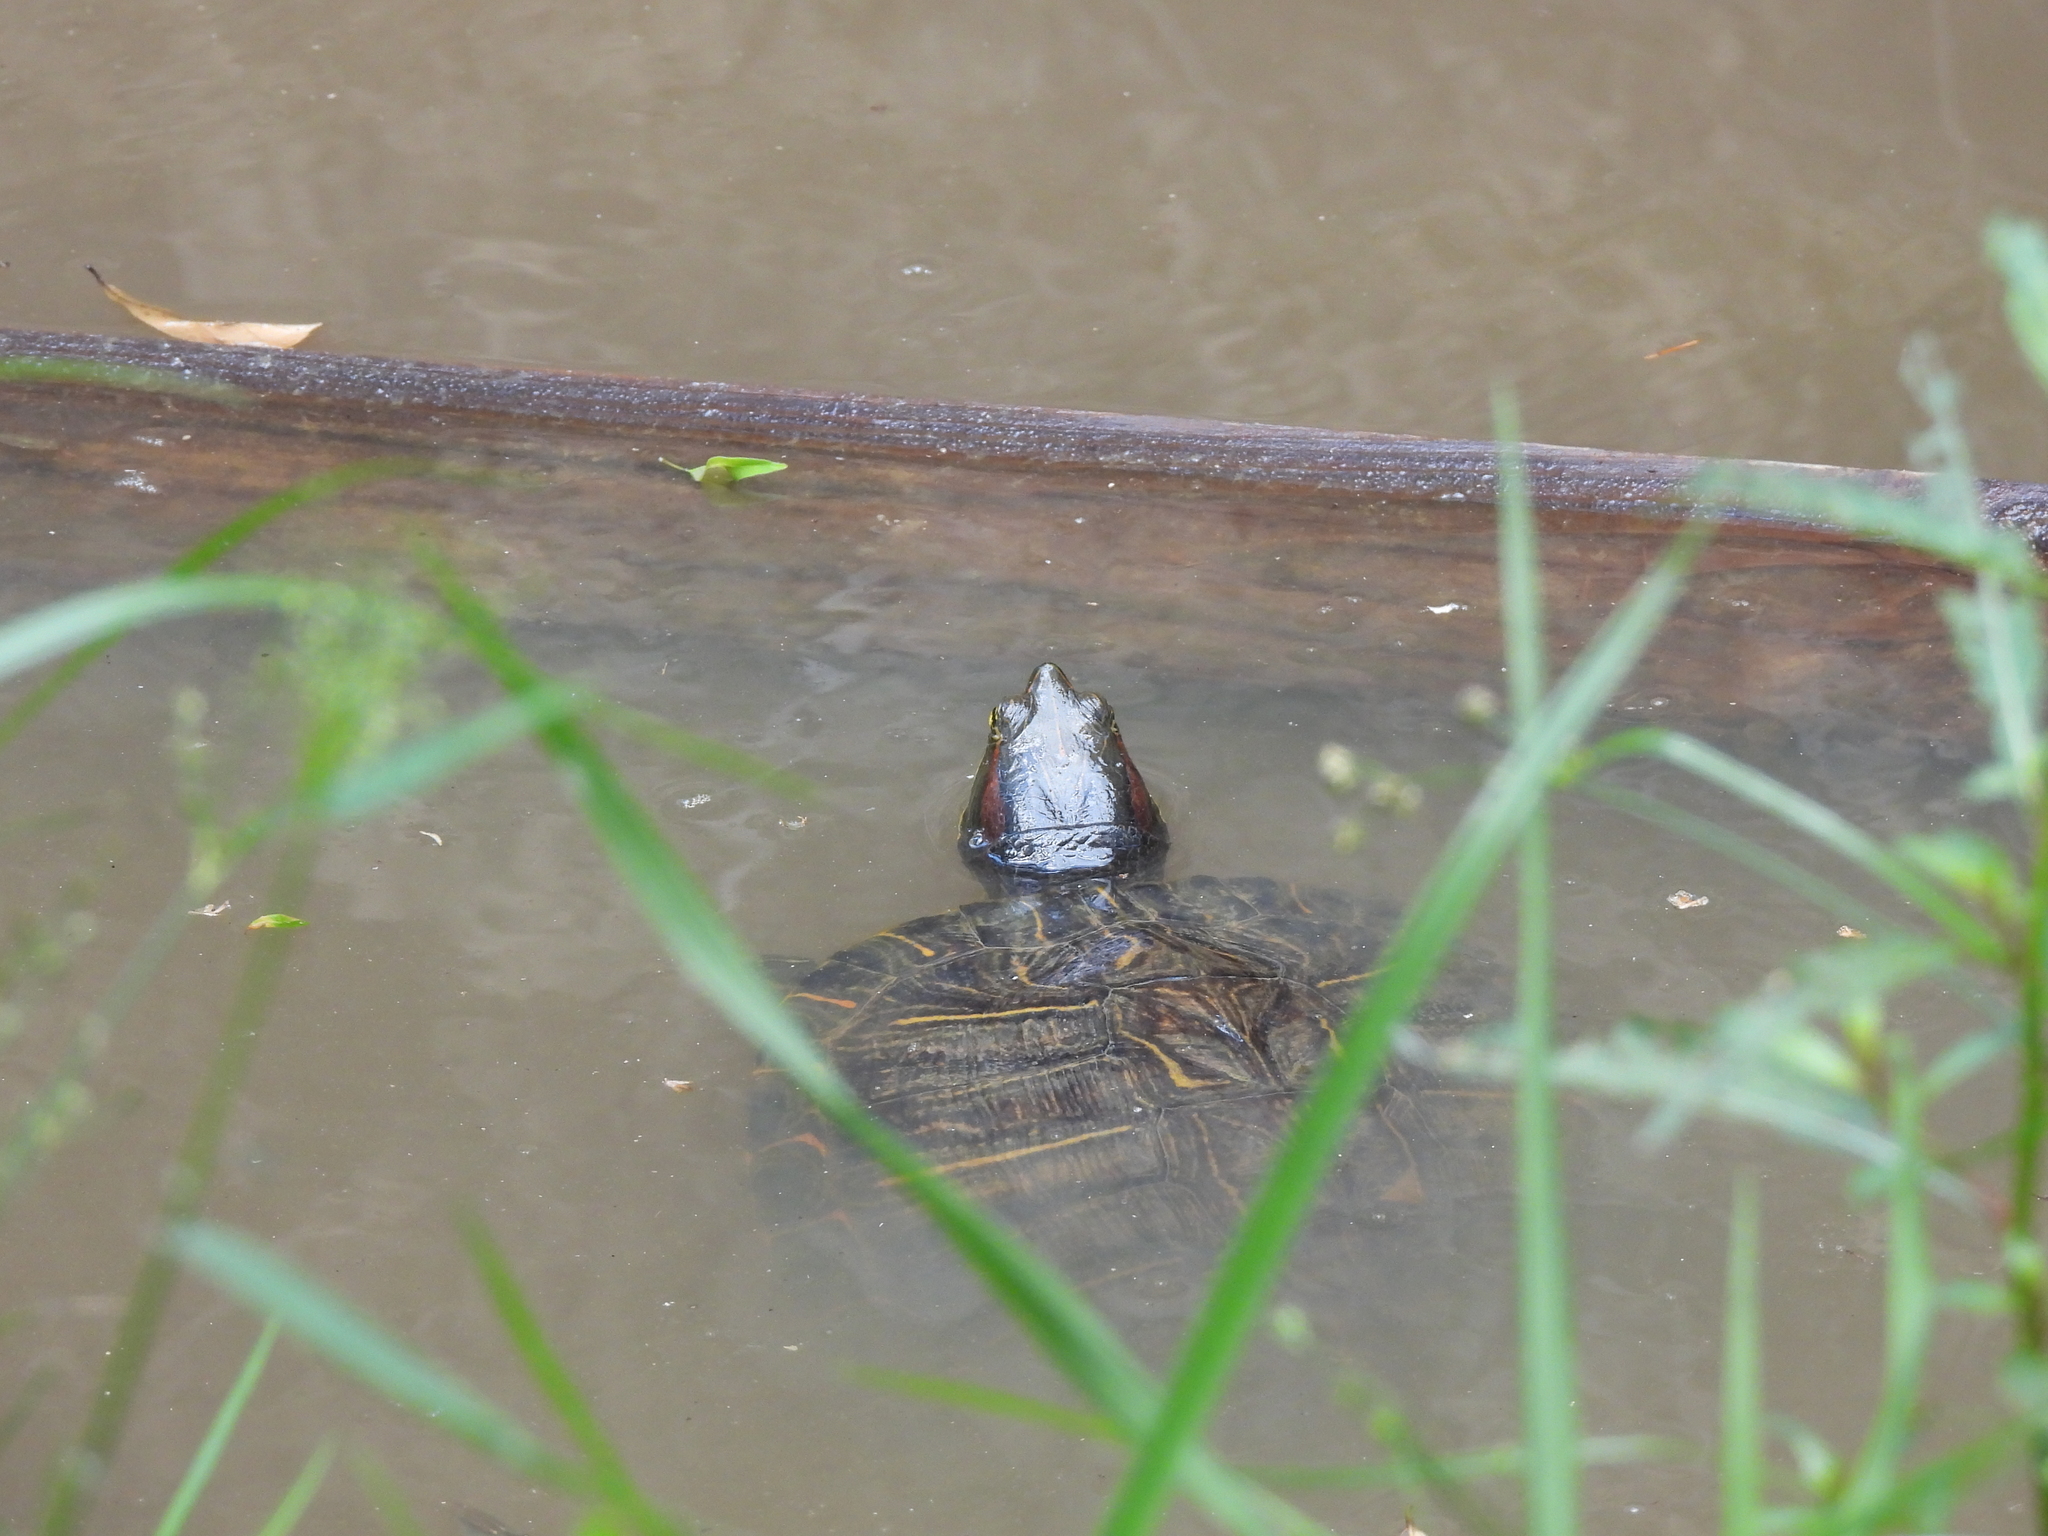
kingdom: Animalia
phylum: Chordata
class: Testudines
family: Emydidae
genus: Trachemys
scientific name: Trachemys scripta
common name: Slider
